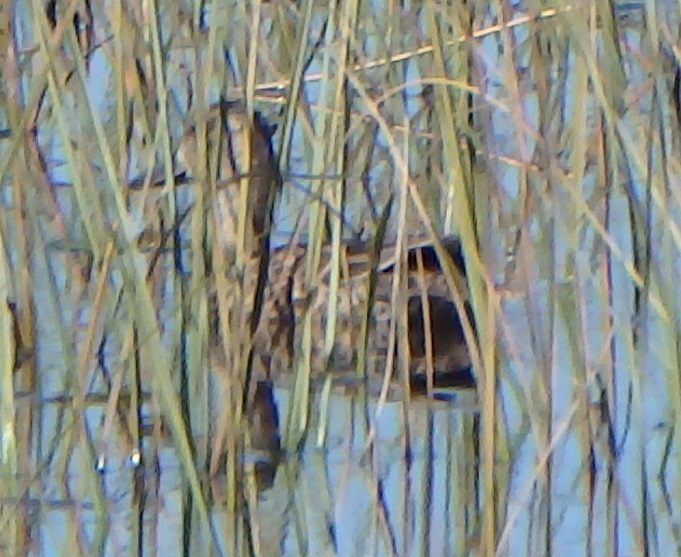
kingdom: Animalia
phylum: Chordata
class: Aves
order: Anseriformes
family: Anatidae
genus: Spatula
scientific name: Spatula discors
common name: Blue-winged teal
